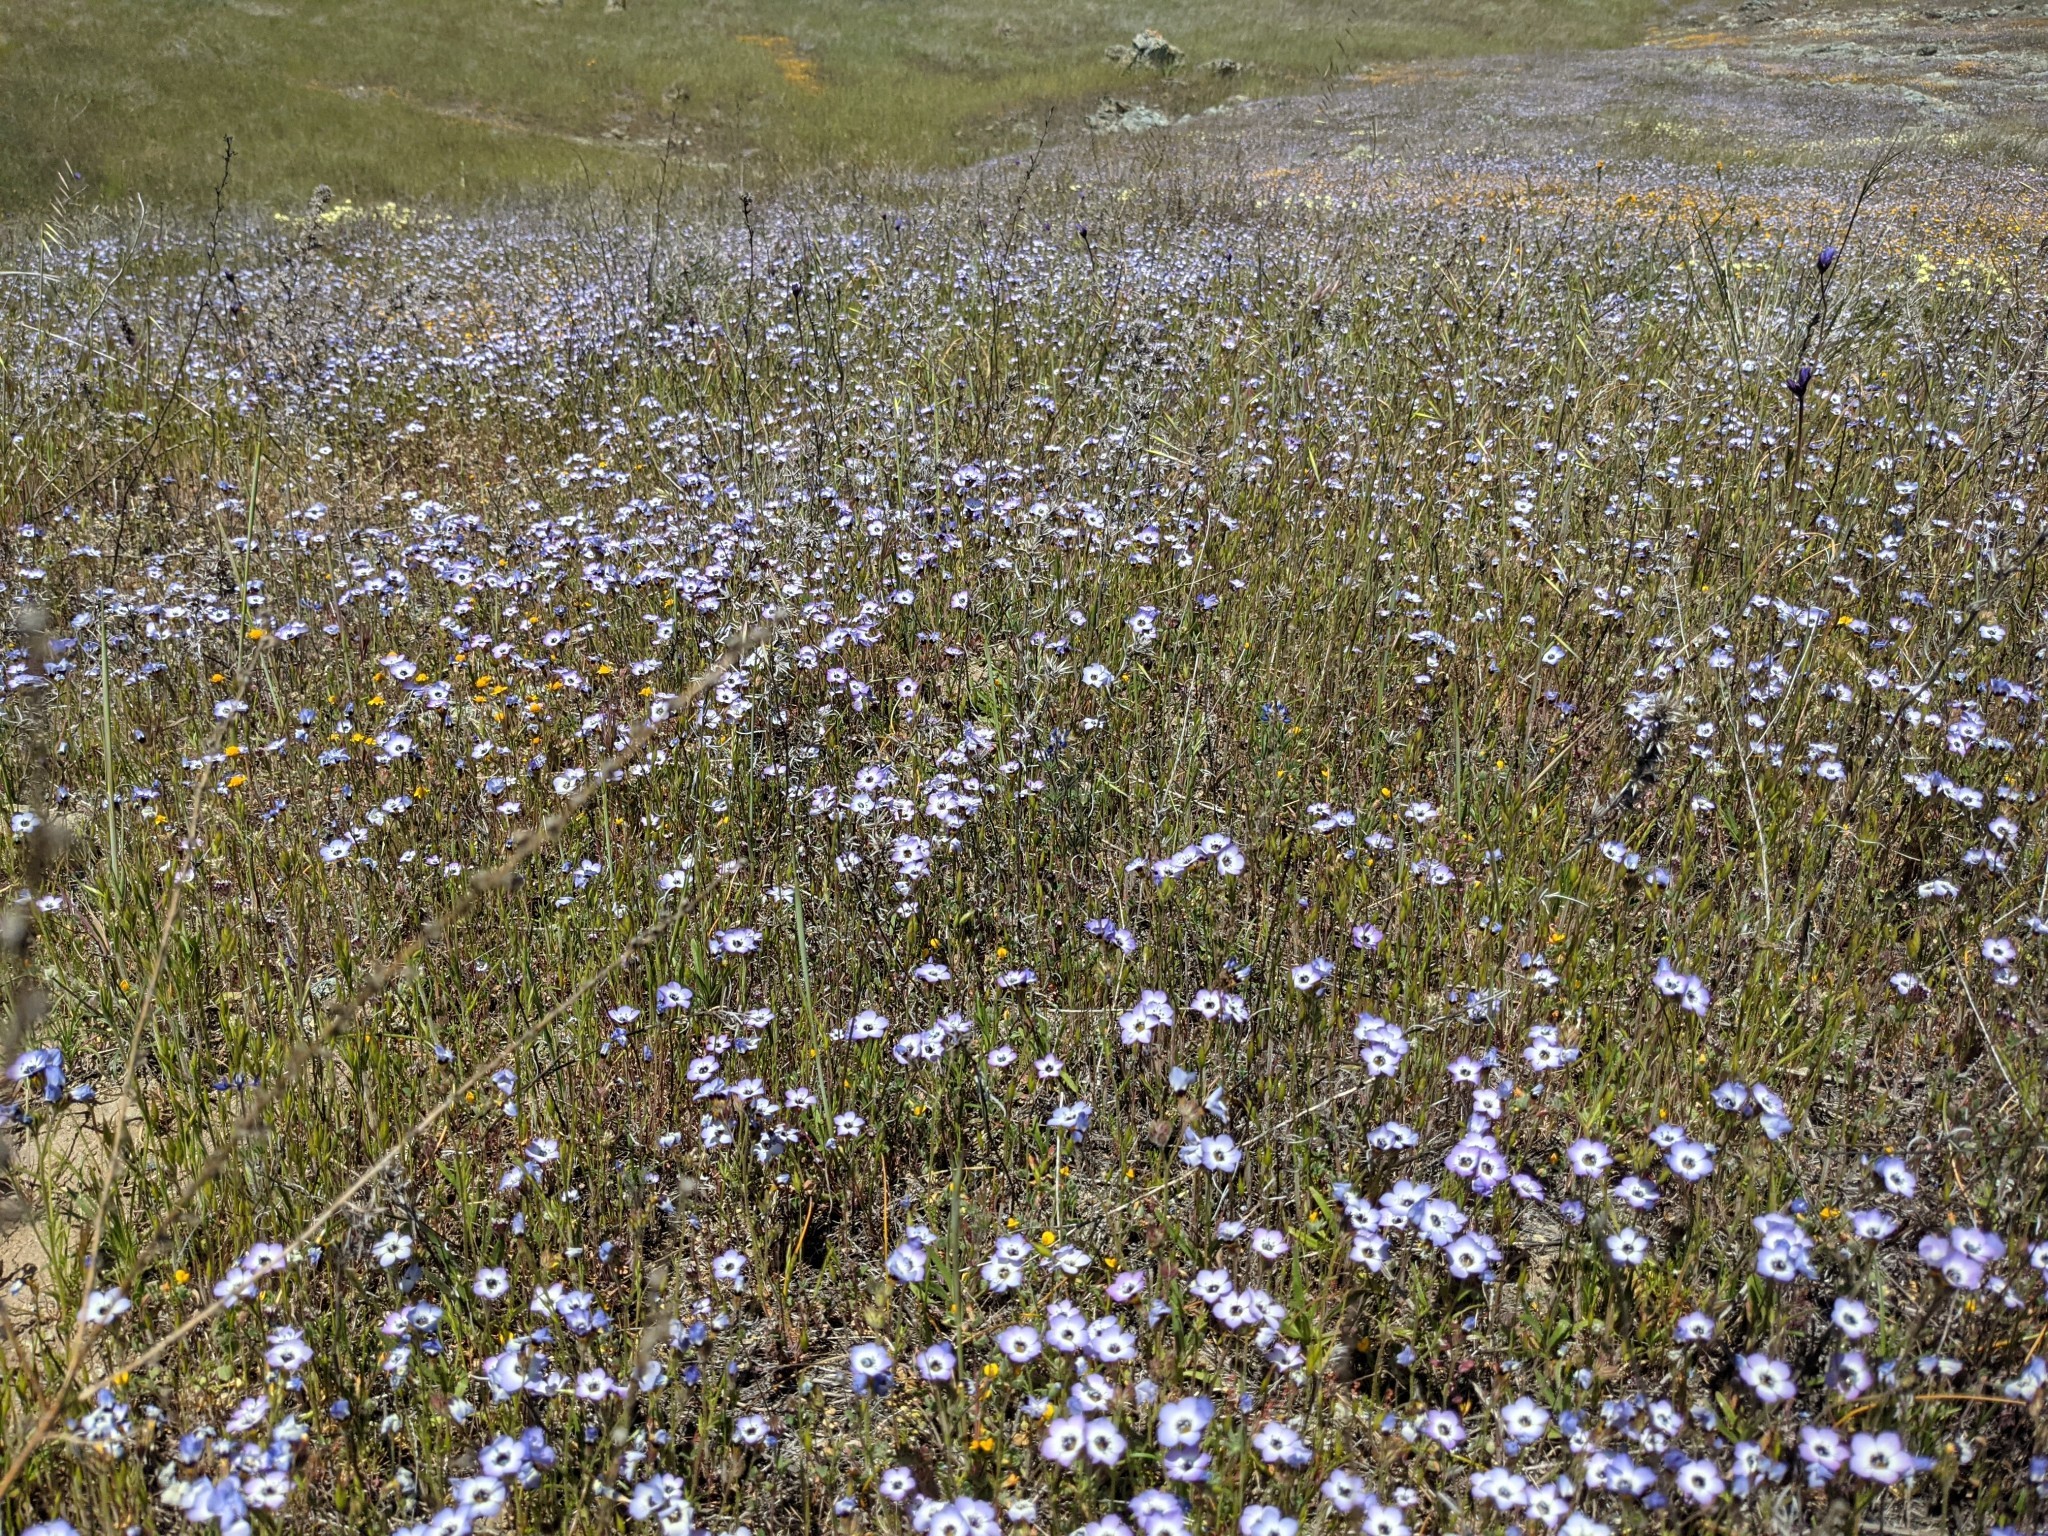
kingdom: Plantae
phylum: Tracheophyta
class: Magnoliopsida
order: Ericales
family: Polemoniaceae
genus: Gilia
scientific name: Gilia tricolor
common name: Bird's-eyes
